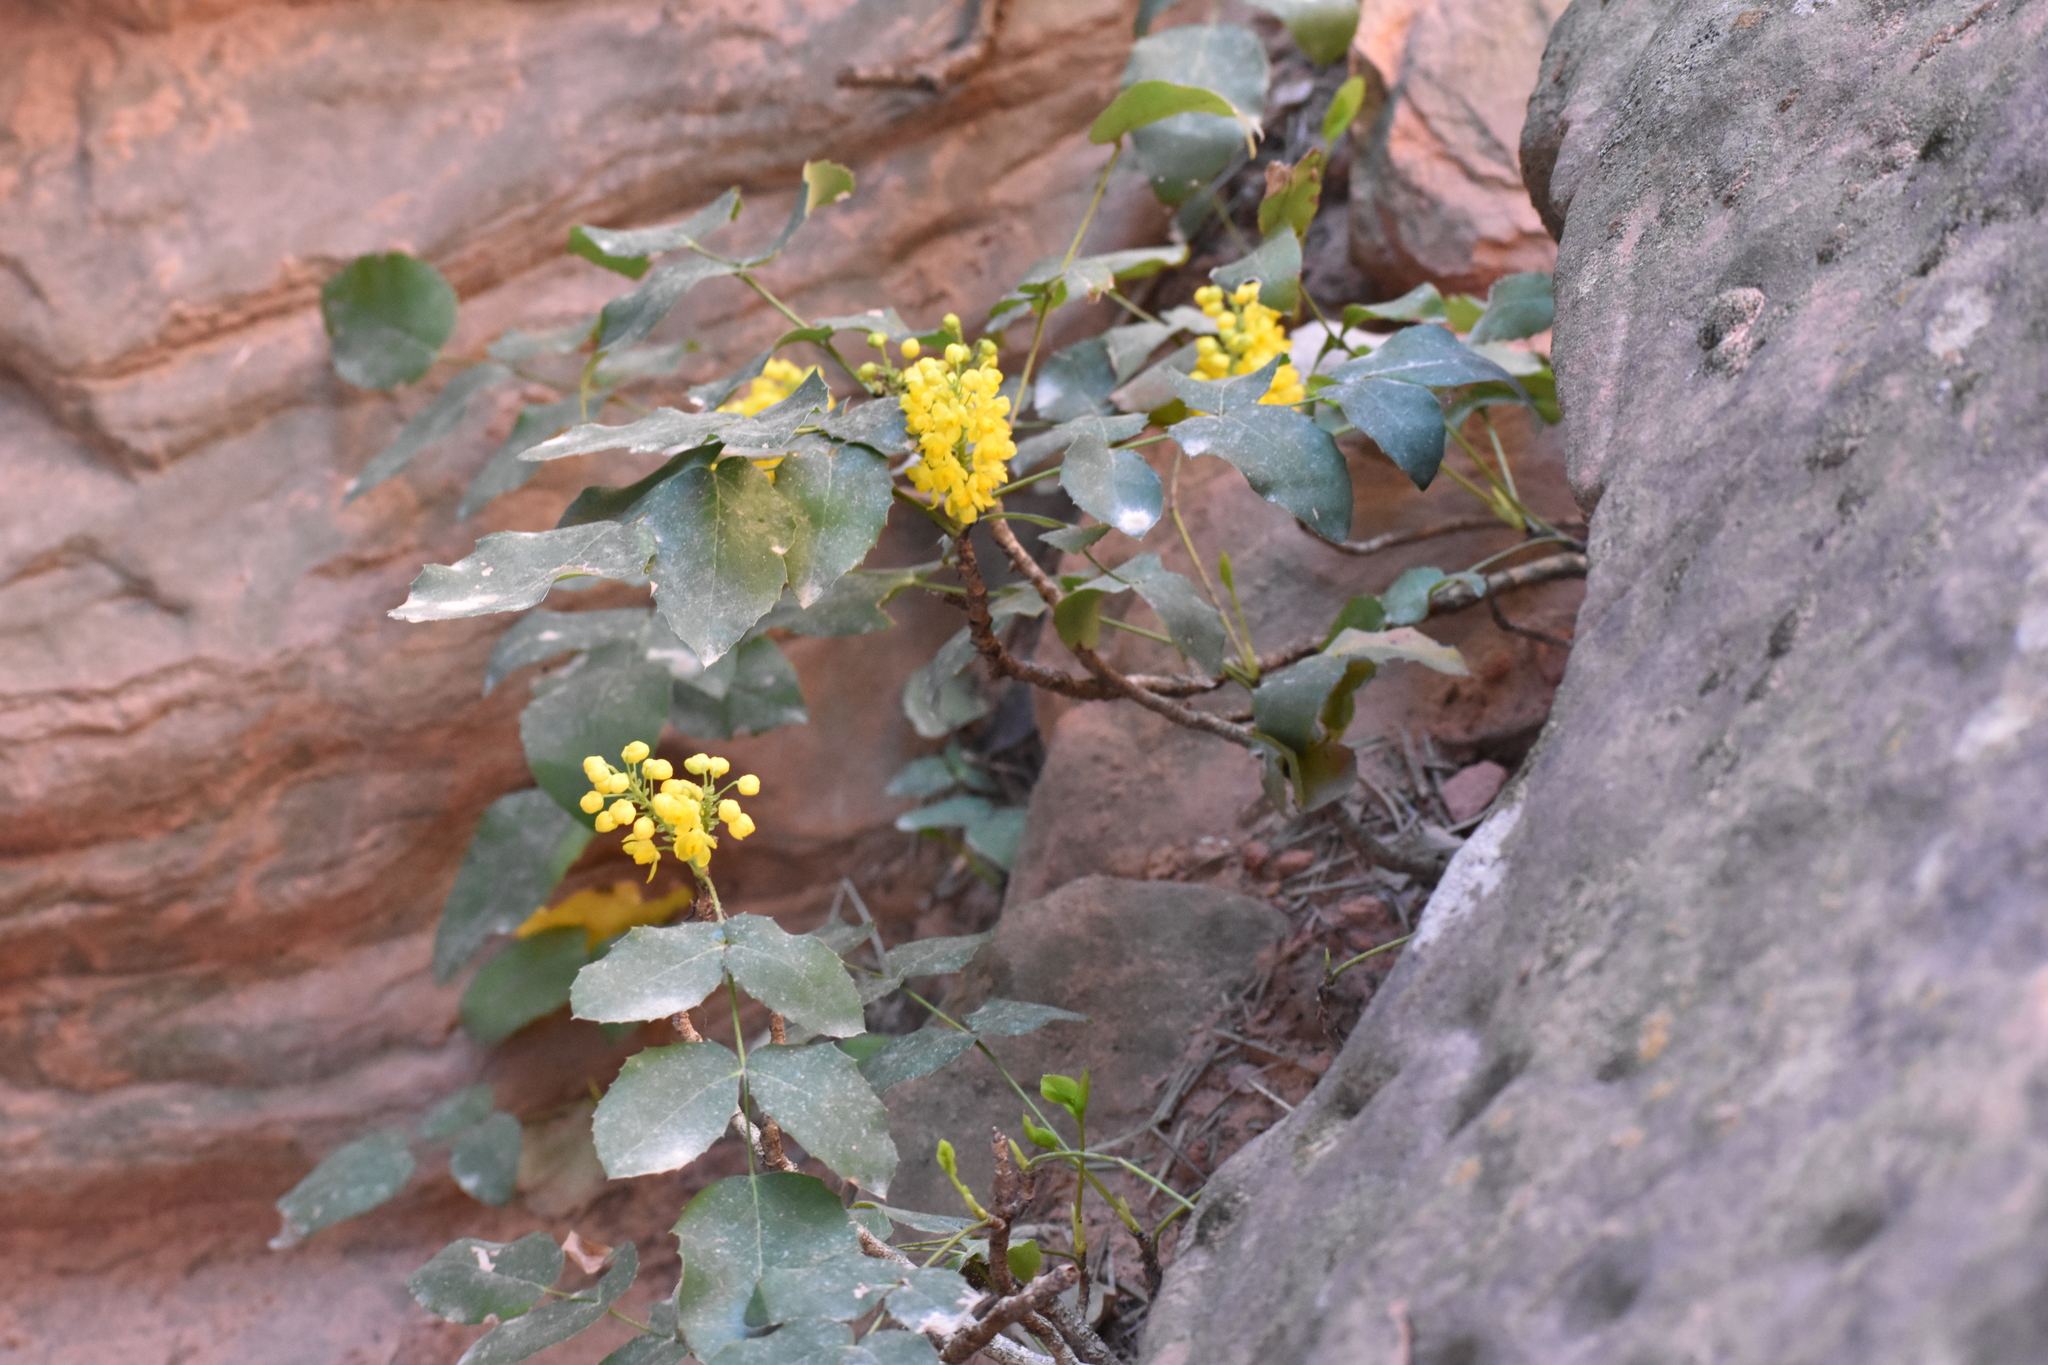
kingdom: Plantae
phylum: Tracheophyta
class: Magnoliopsida
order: Ranunculales
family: Berberidaceae
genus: Mahonia
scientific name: Mahonia repens
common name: Creeping oregon-grape
